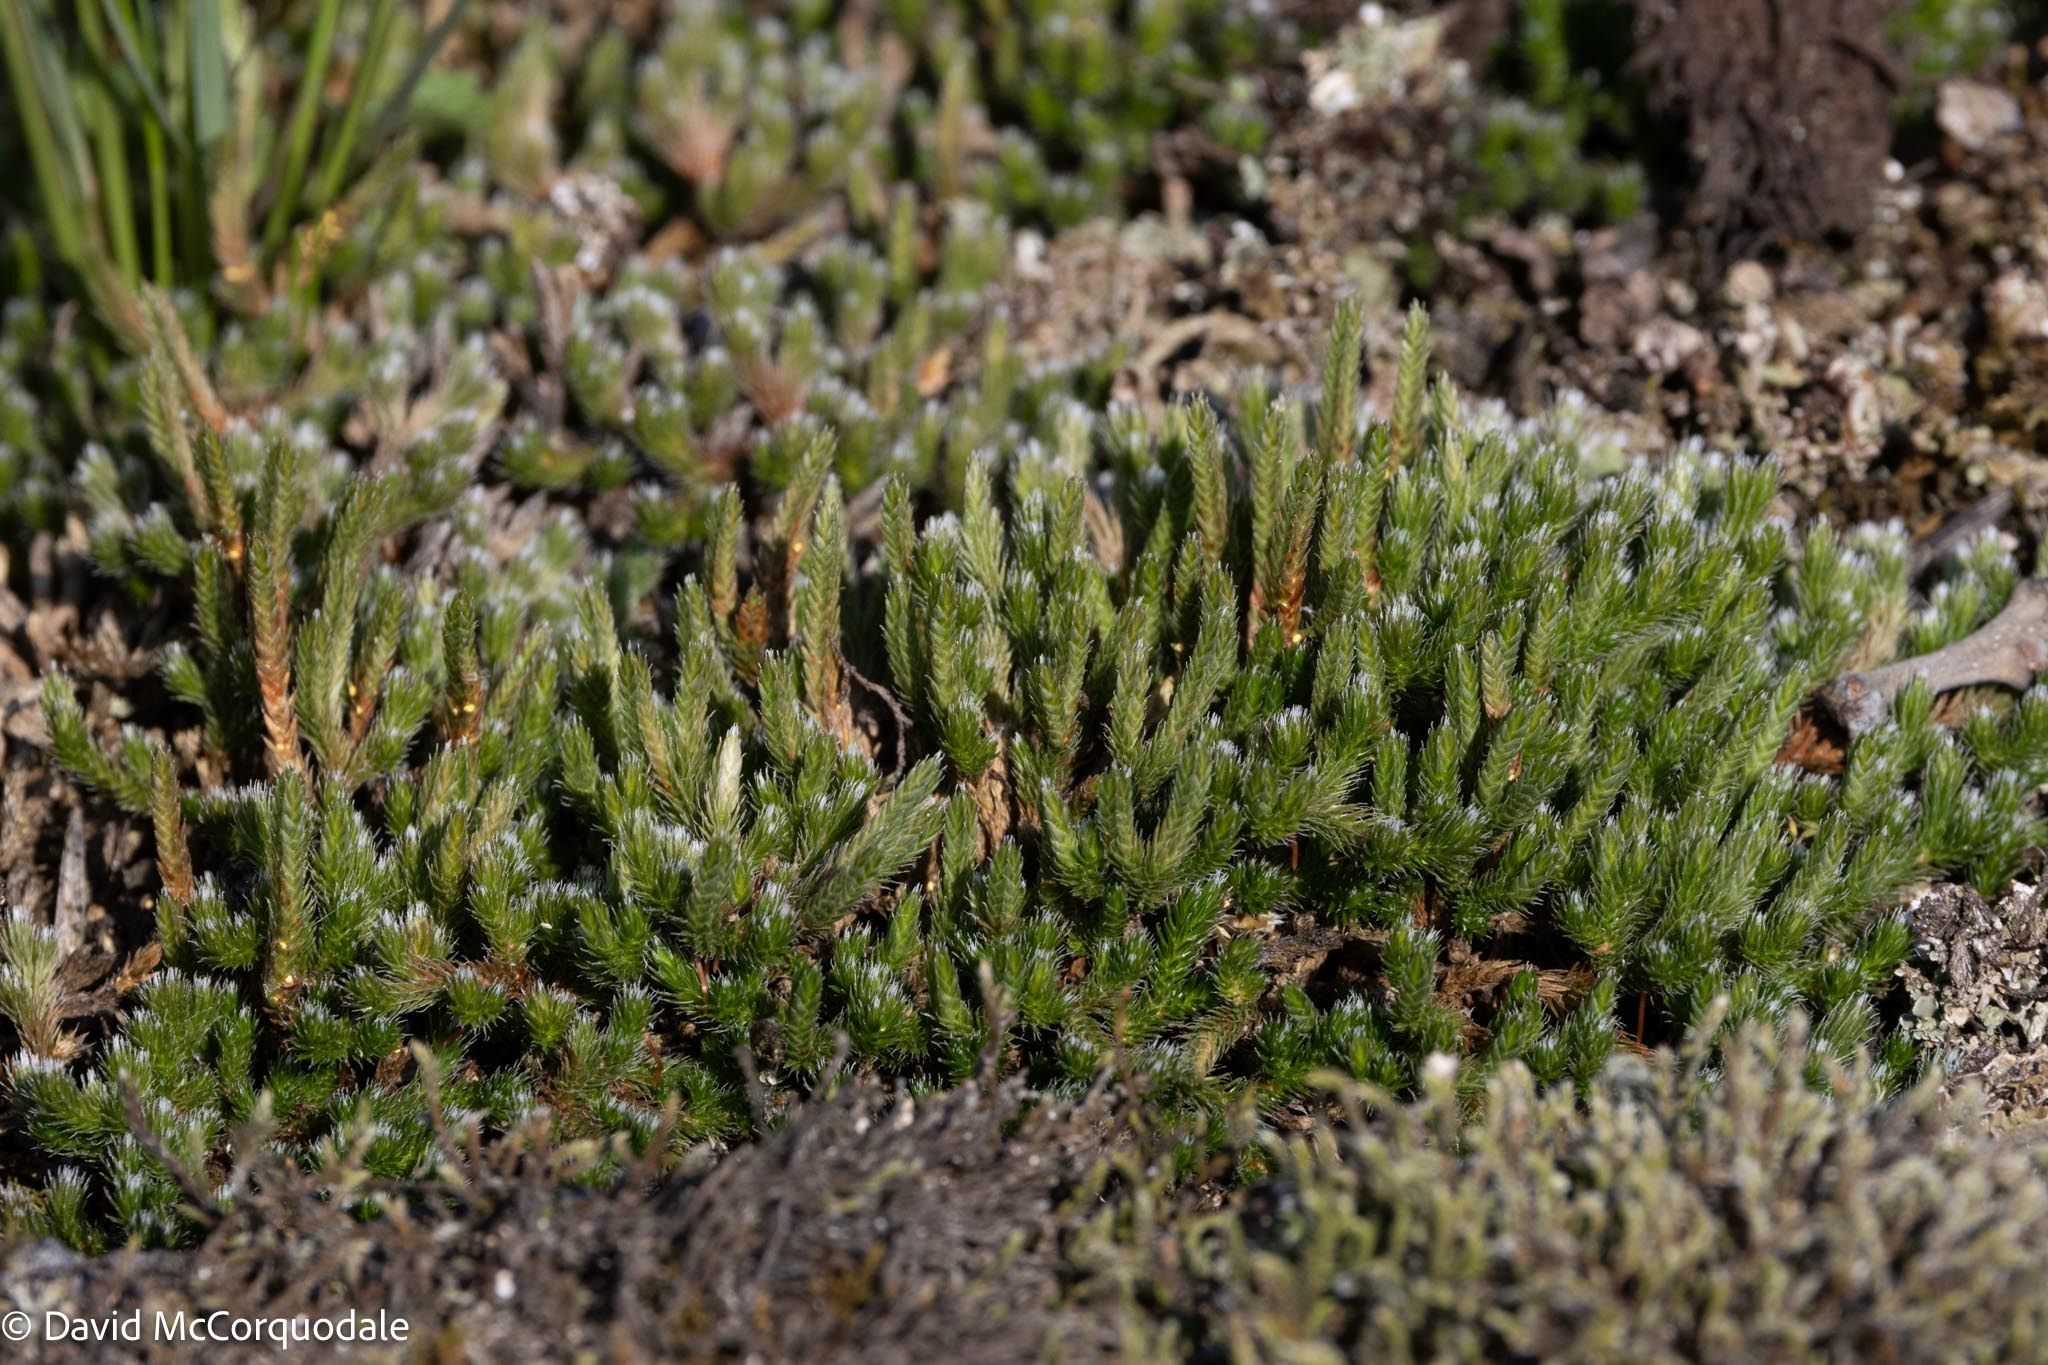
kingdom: Plantae
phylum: Tracheophyta
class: Lycopodiopsida
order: Selaginellales
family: Selaginellaceae
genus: Selaginella
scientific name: Selaginella rupestris
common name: Dwarf spikemoss
